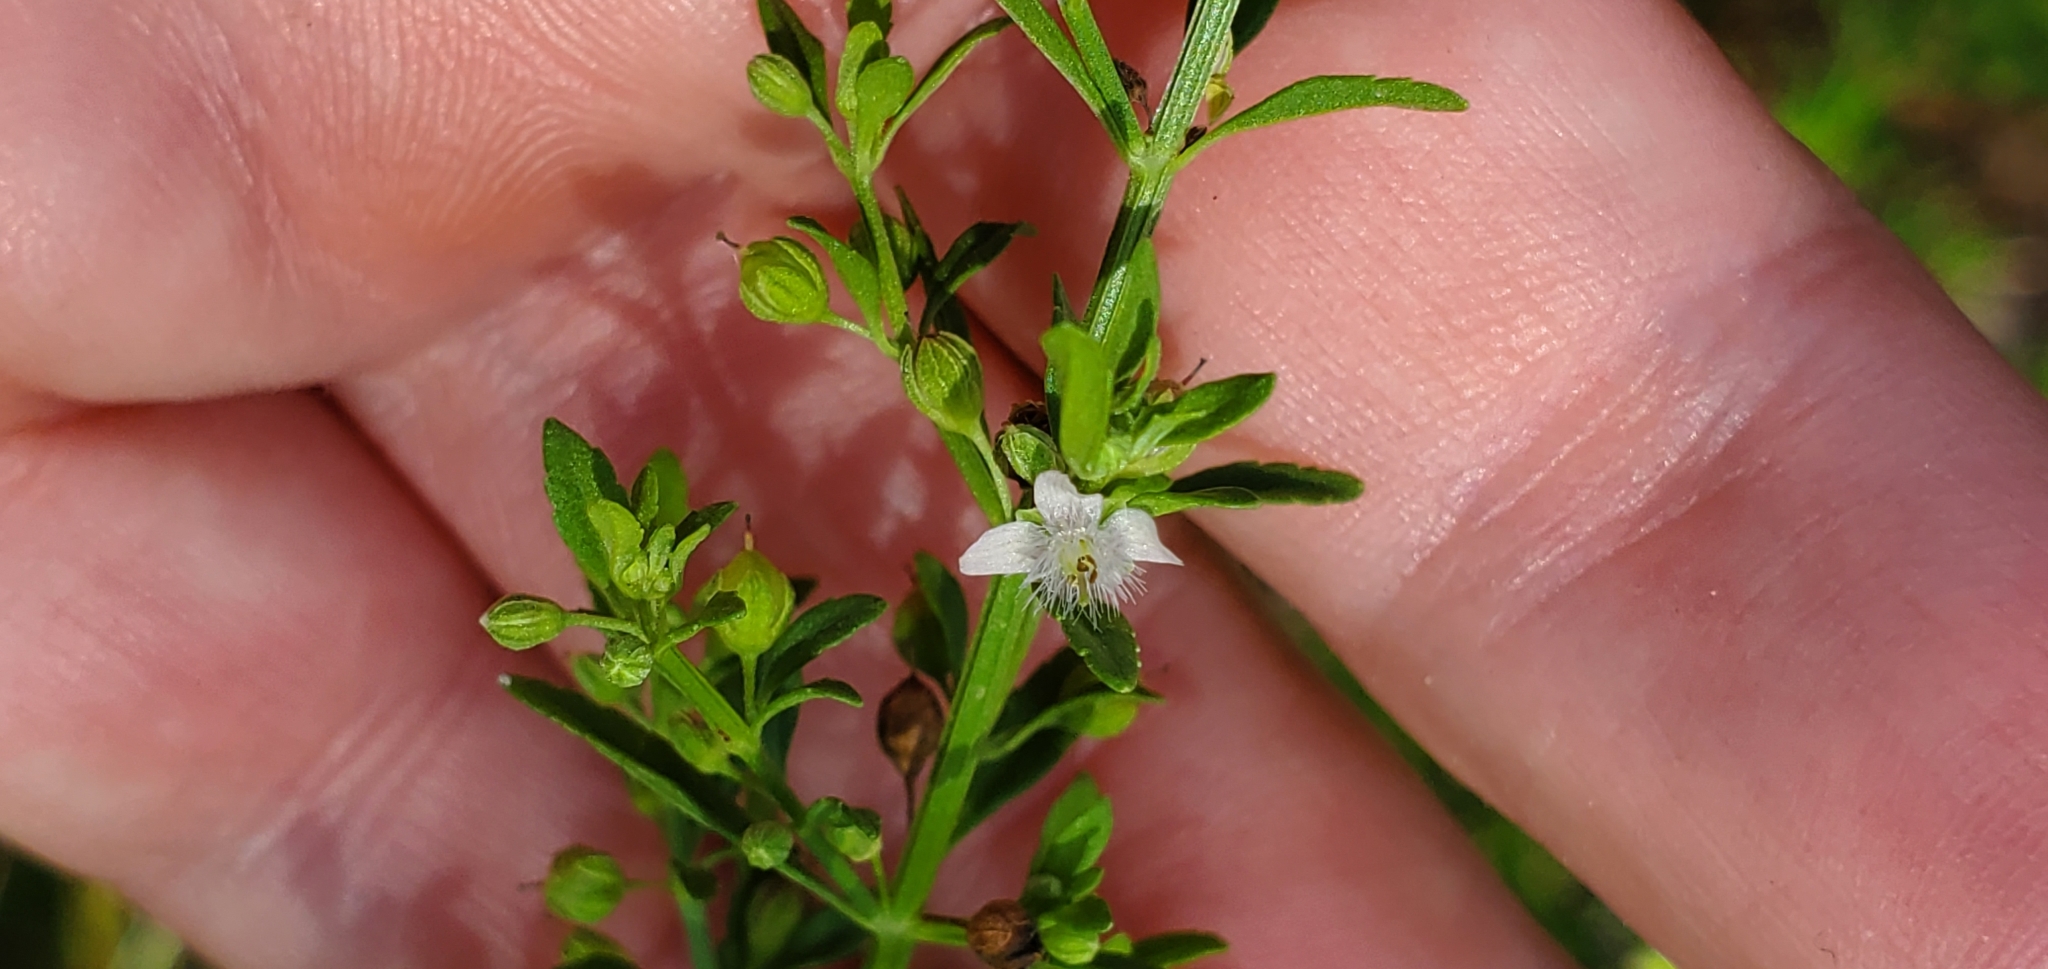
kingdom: Plantae
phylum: Tracheophyta
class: Magnoliopsida
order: Lamiales
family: Plantaginaceae
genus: Scoparia
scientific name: Scoparia dulcis
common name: Scoparia-weed
